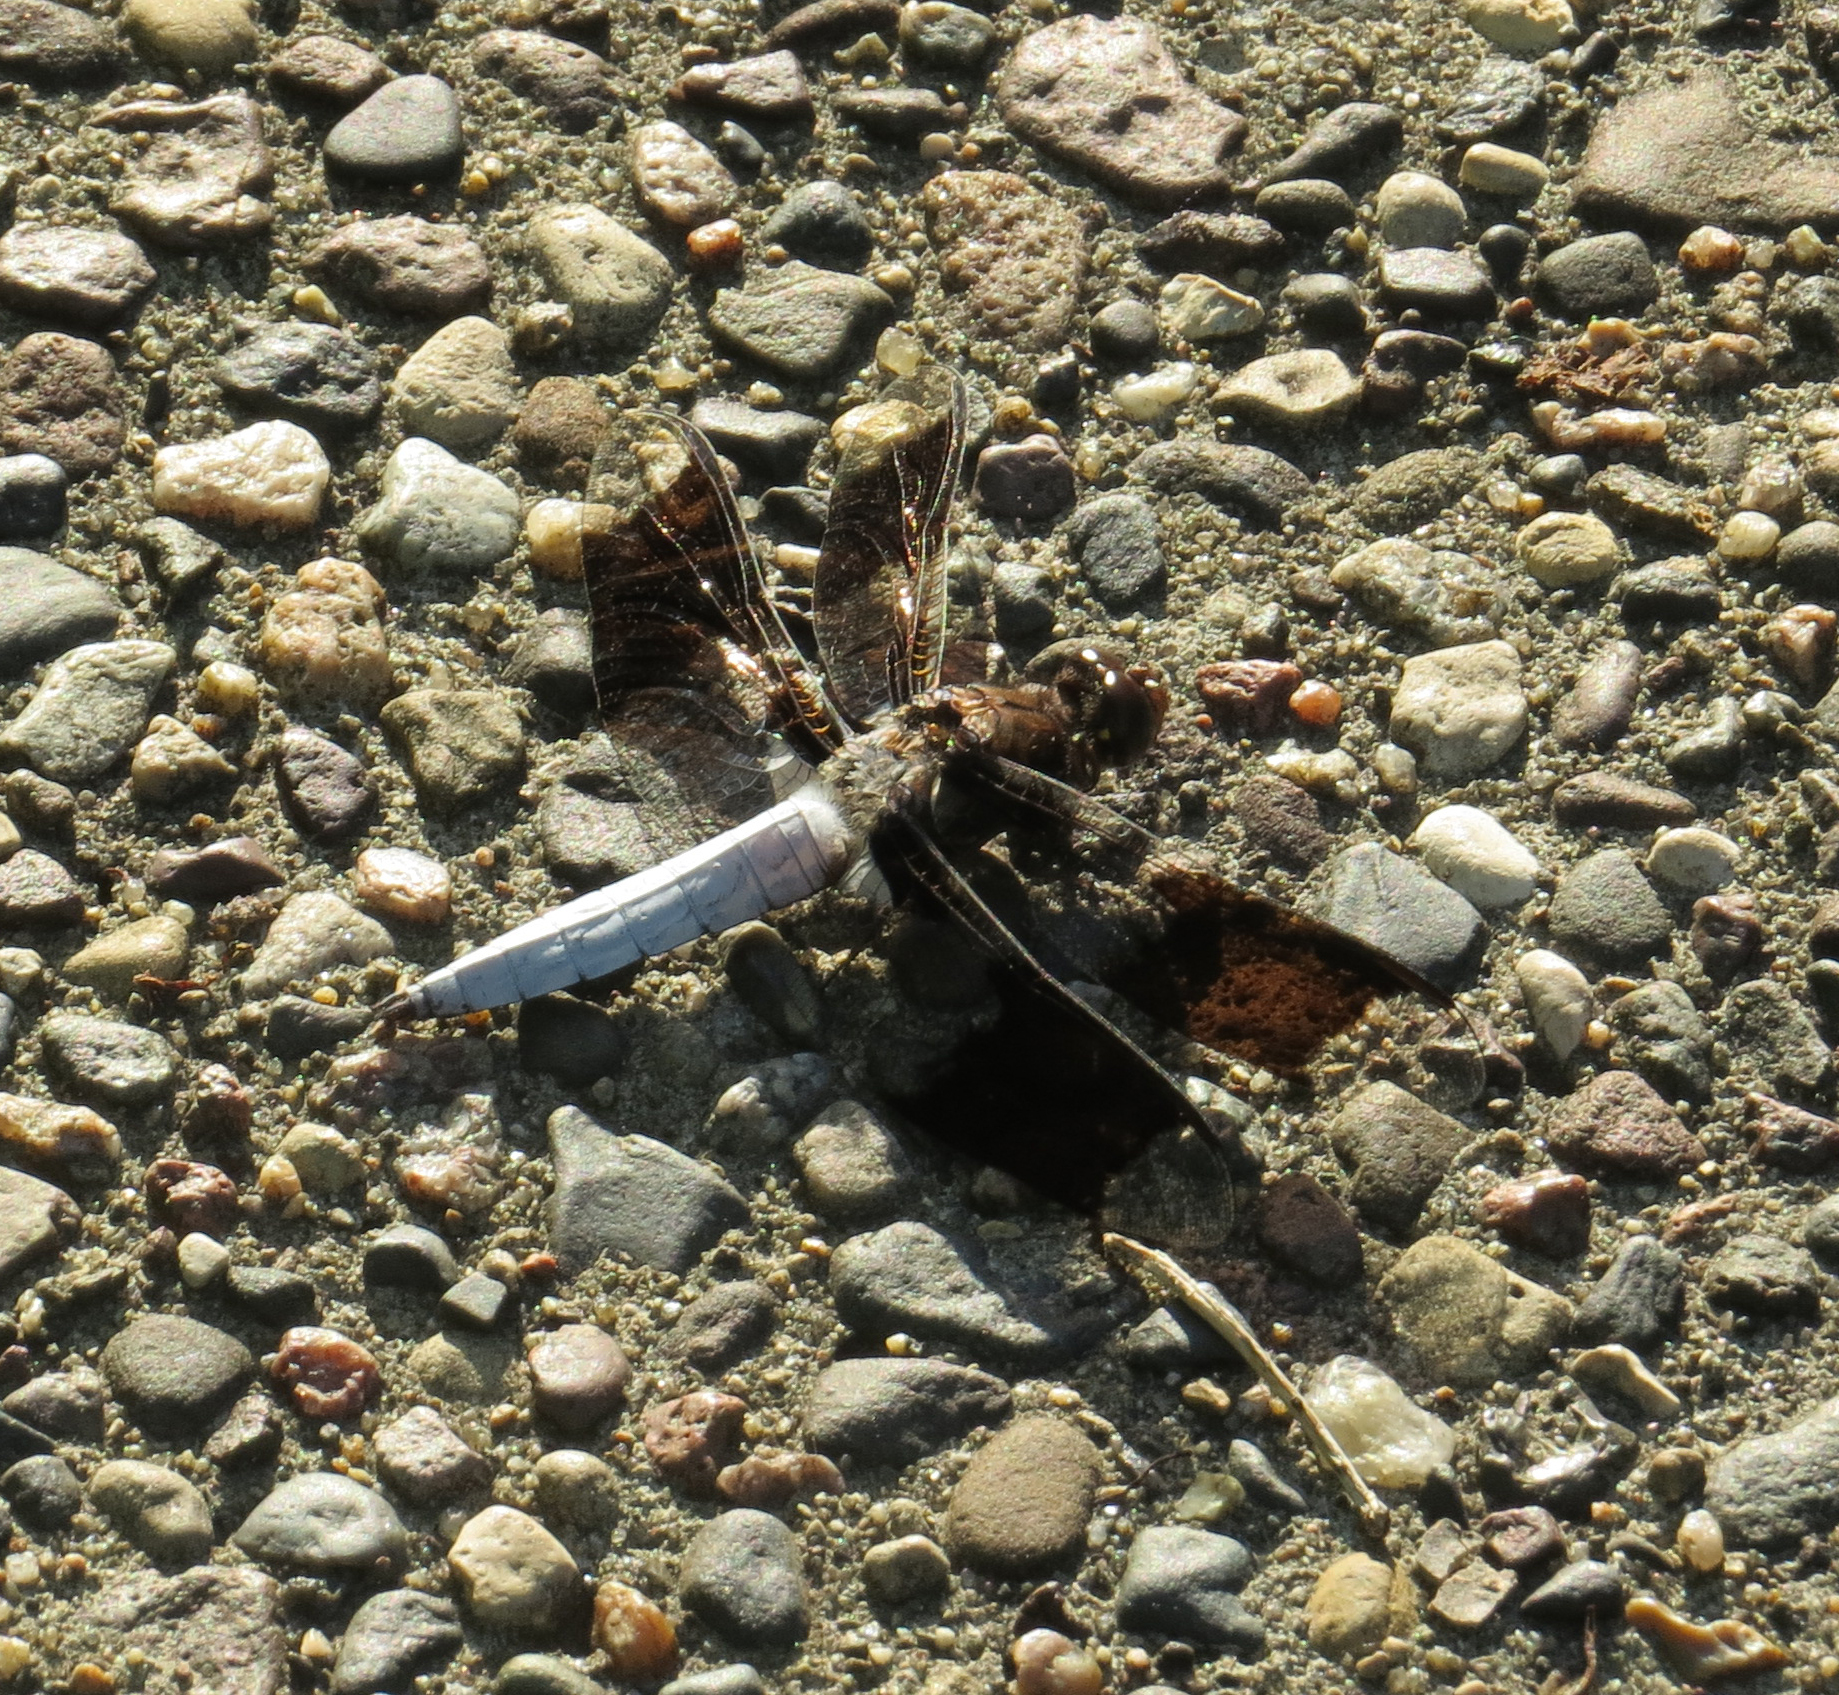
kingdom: Animalia
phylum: Arthropoda
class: Insecta
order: Odonata
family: Libellulidae
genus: Plathemis
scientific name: Plathemis lydia
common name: Common whitetail
